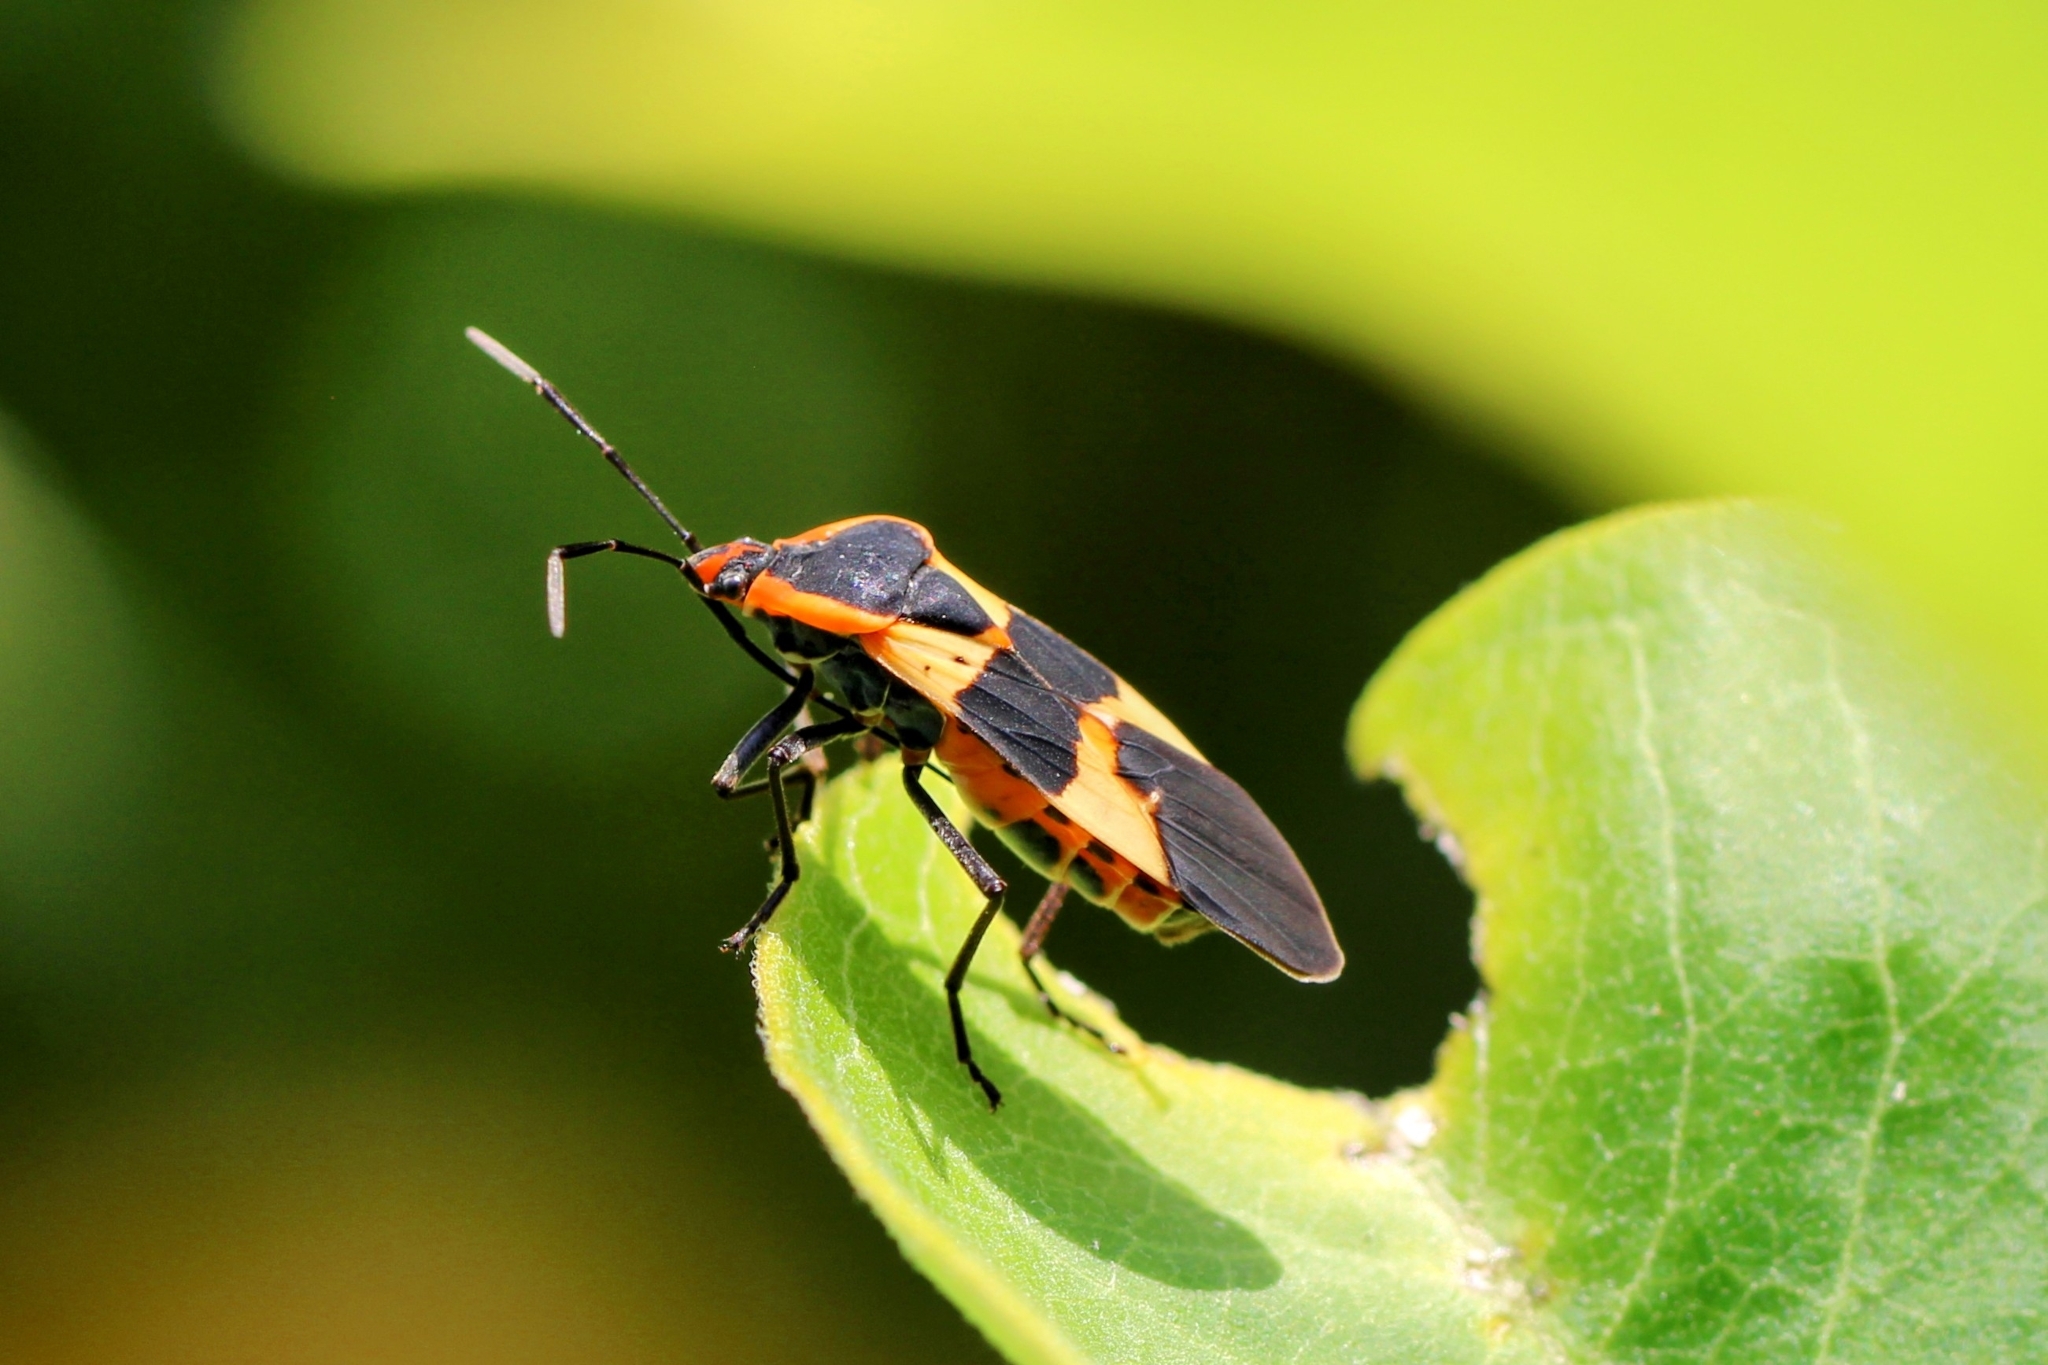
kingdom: Animalia
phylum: Arthropoda
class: Insecta
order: Hemiptera
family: Lygaeidae
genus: Oncopeltus
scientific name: Oncopeltus fasciatus
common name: Large milkweed bug
